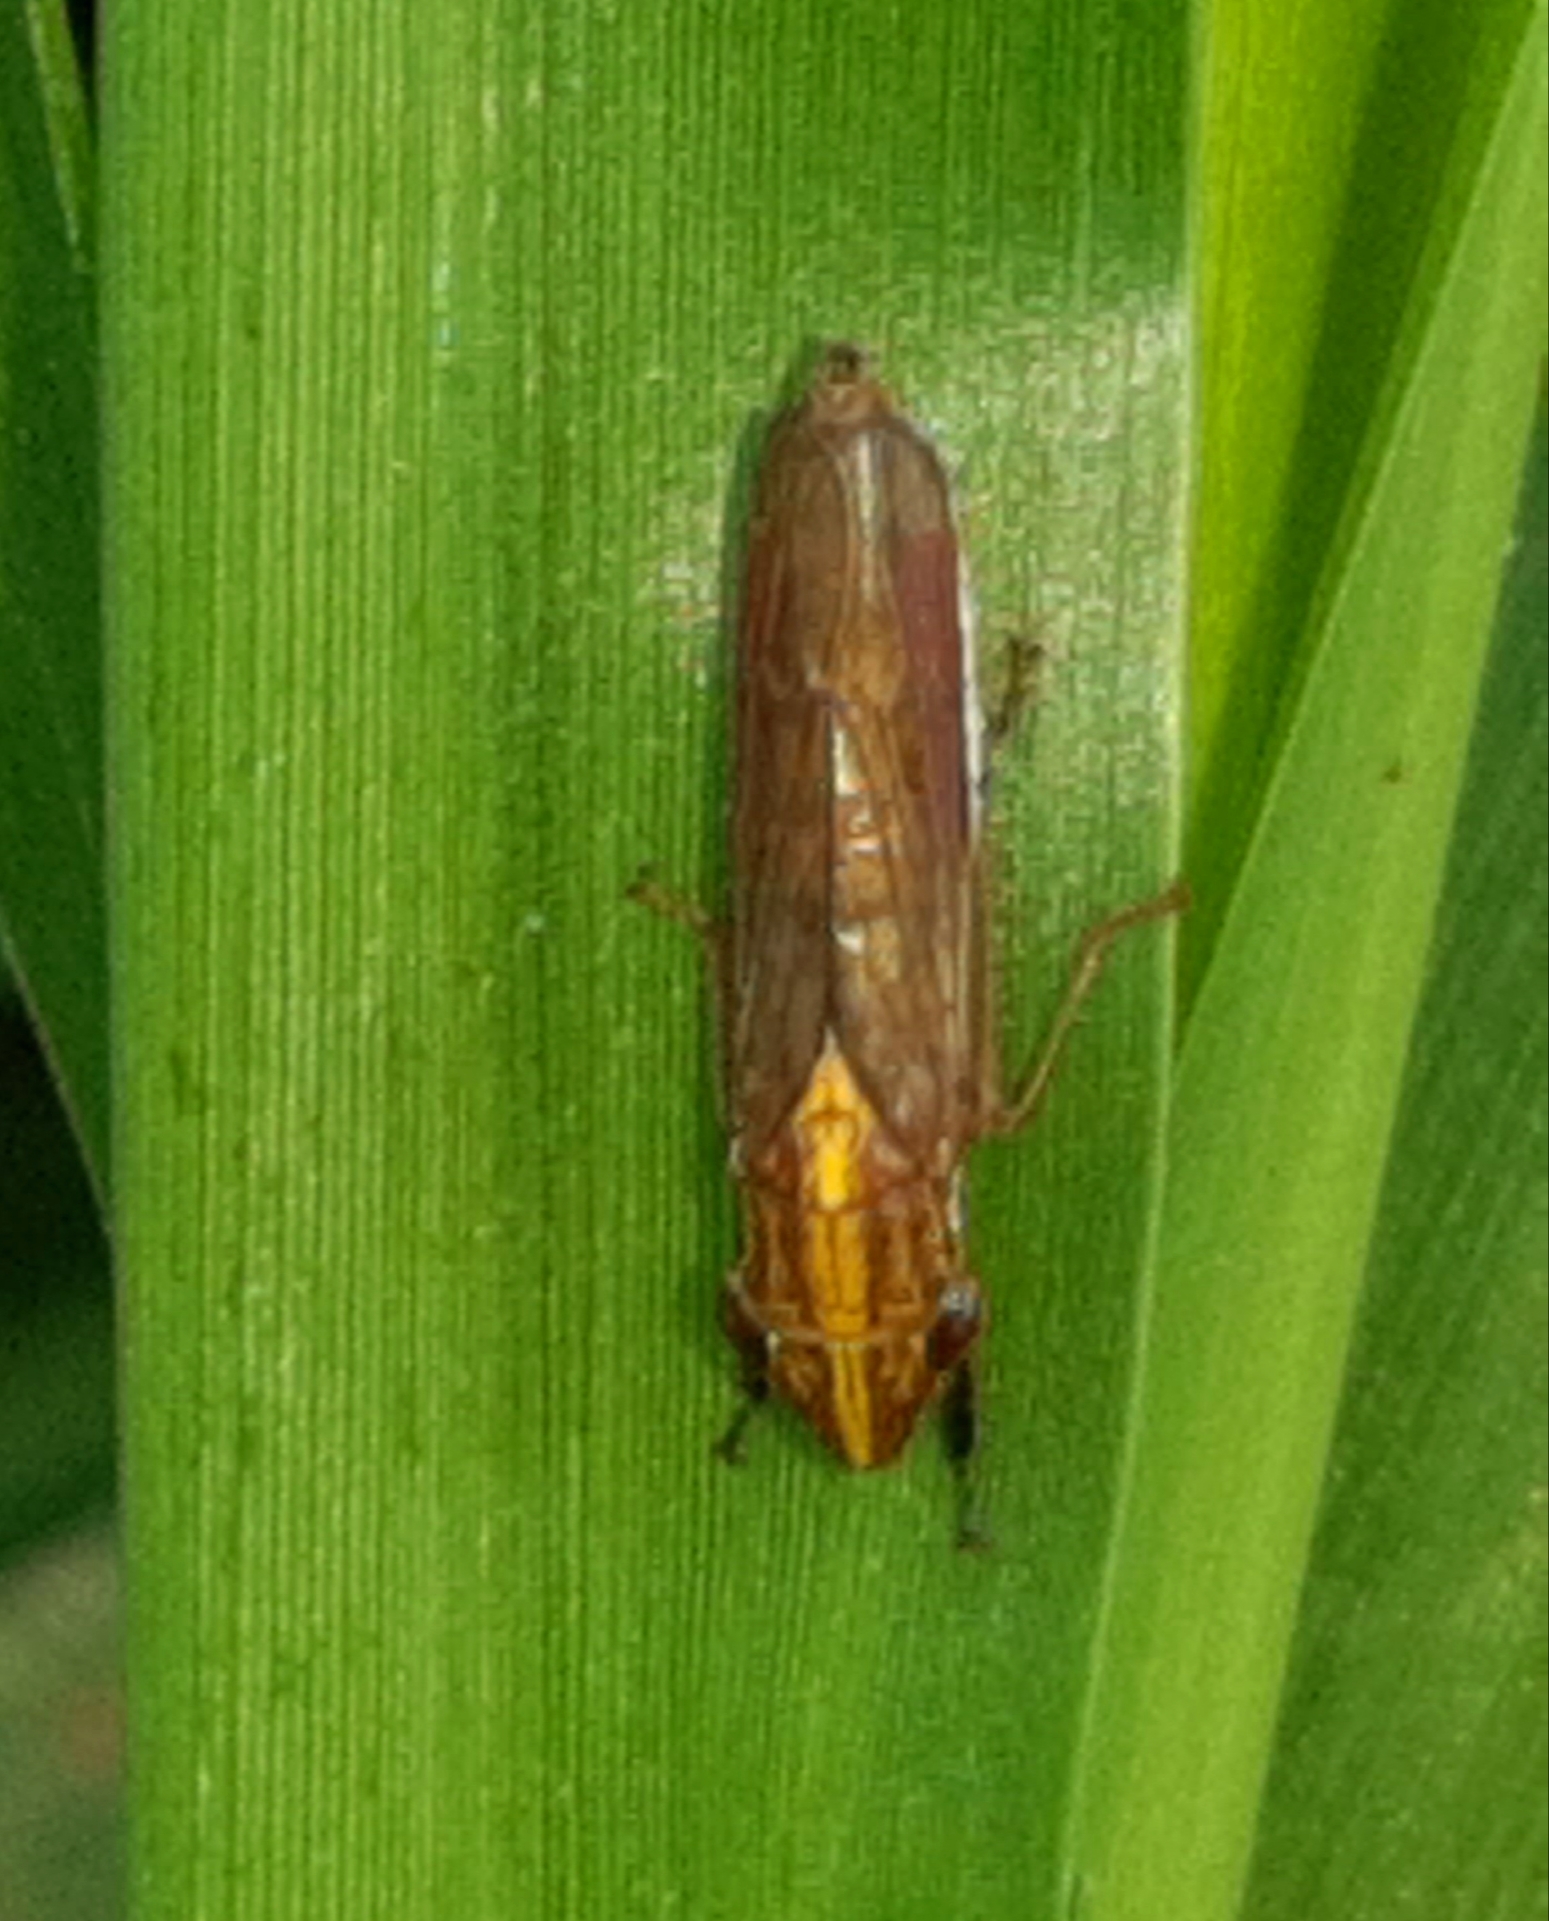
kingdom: Animalia
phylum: Arthropoda
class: Insecta
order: Hemiptera
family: Cicadellidae
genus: Phera
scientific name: Phera obtusifrons
